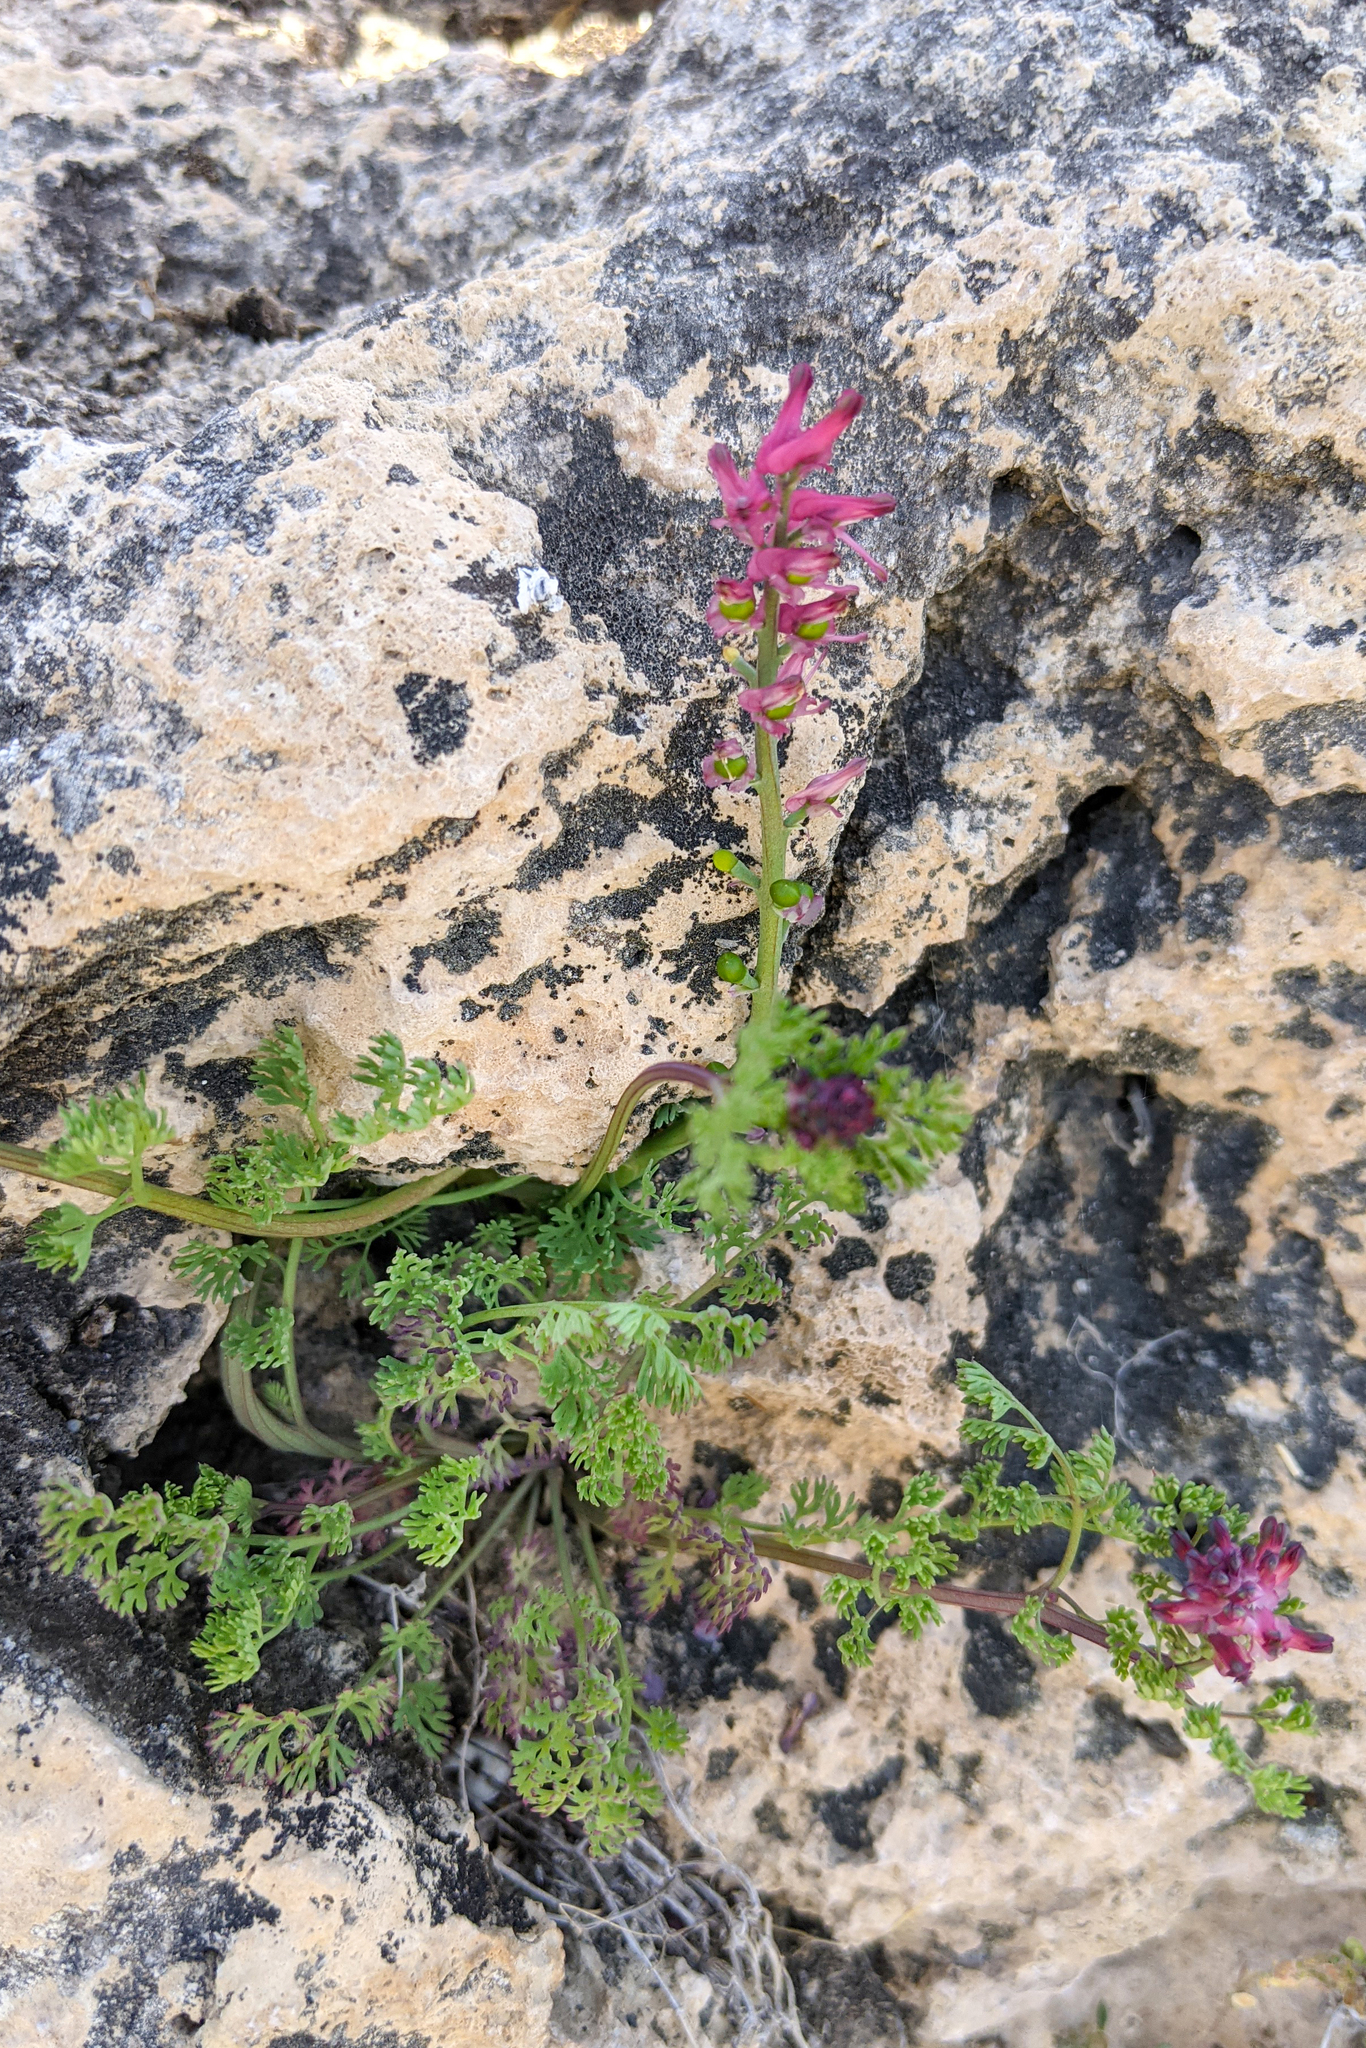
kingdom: Plantae
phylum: Tracheophyta
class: Magnoliopsida
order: Ranunculales
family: Papaveraceae
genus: Fumaria
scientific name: Fumaria officinalis
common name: Common fumitory
